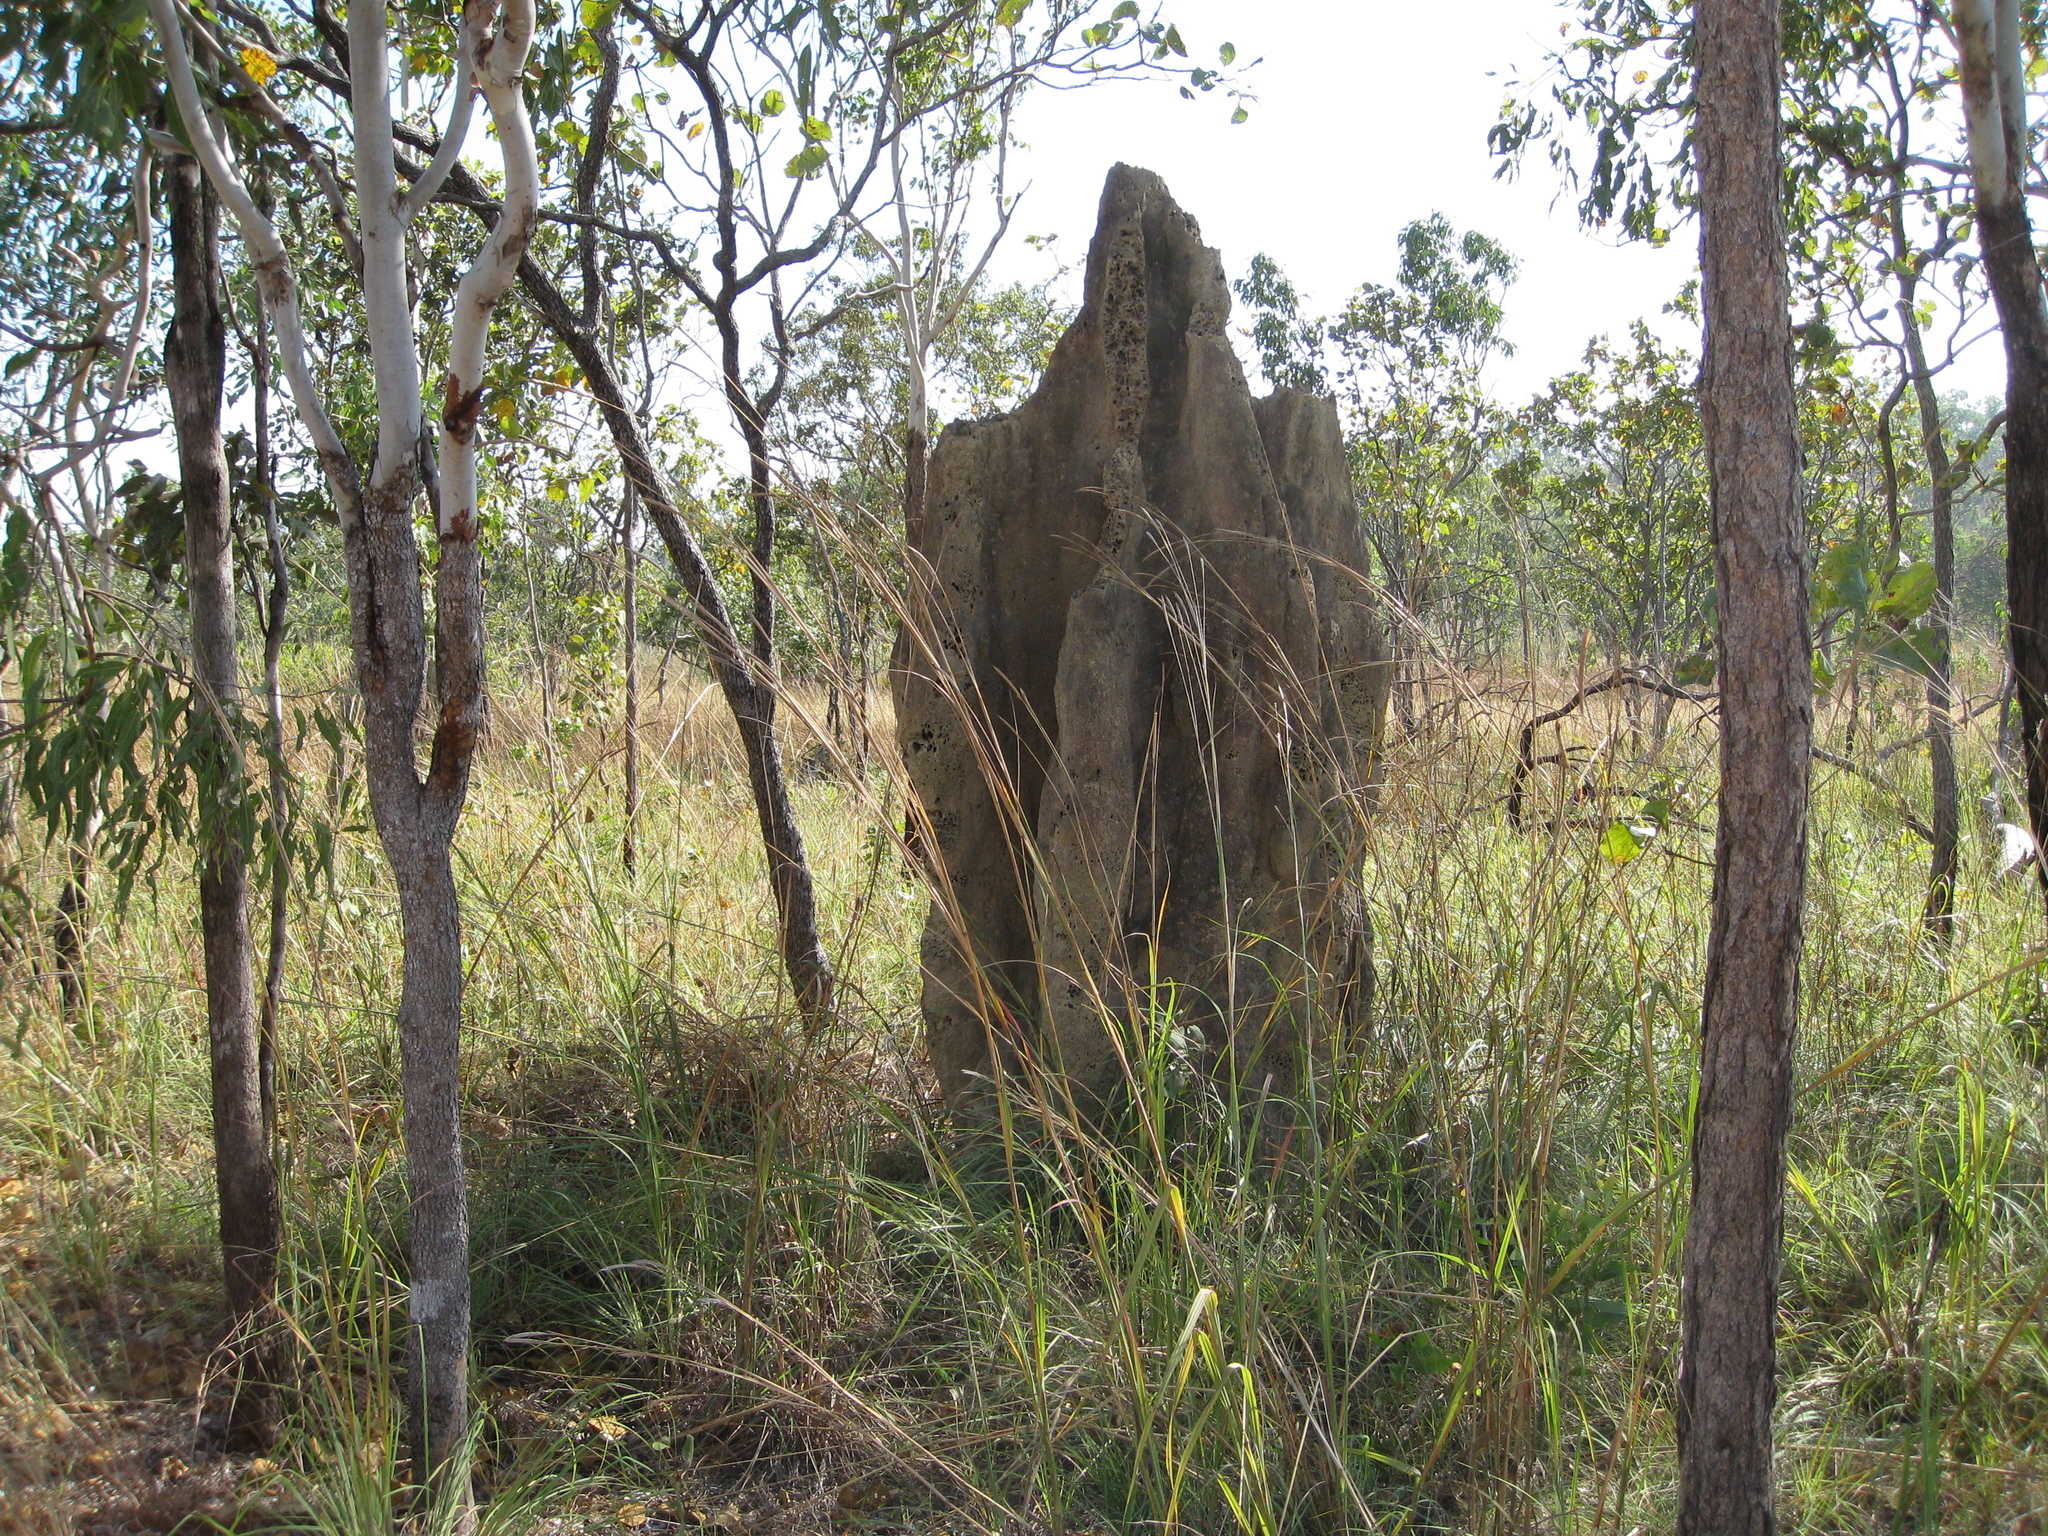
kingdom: Animalia
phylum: Arthropoda
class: Insecta
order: Blattodea
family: Termitidae
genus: Nasutitermes
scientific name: Nasutitermes triodiae
